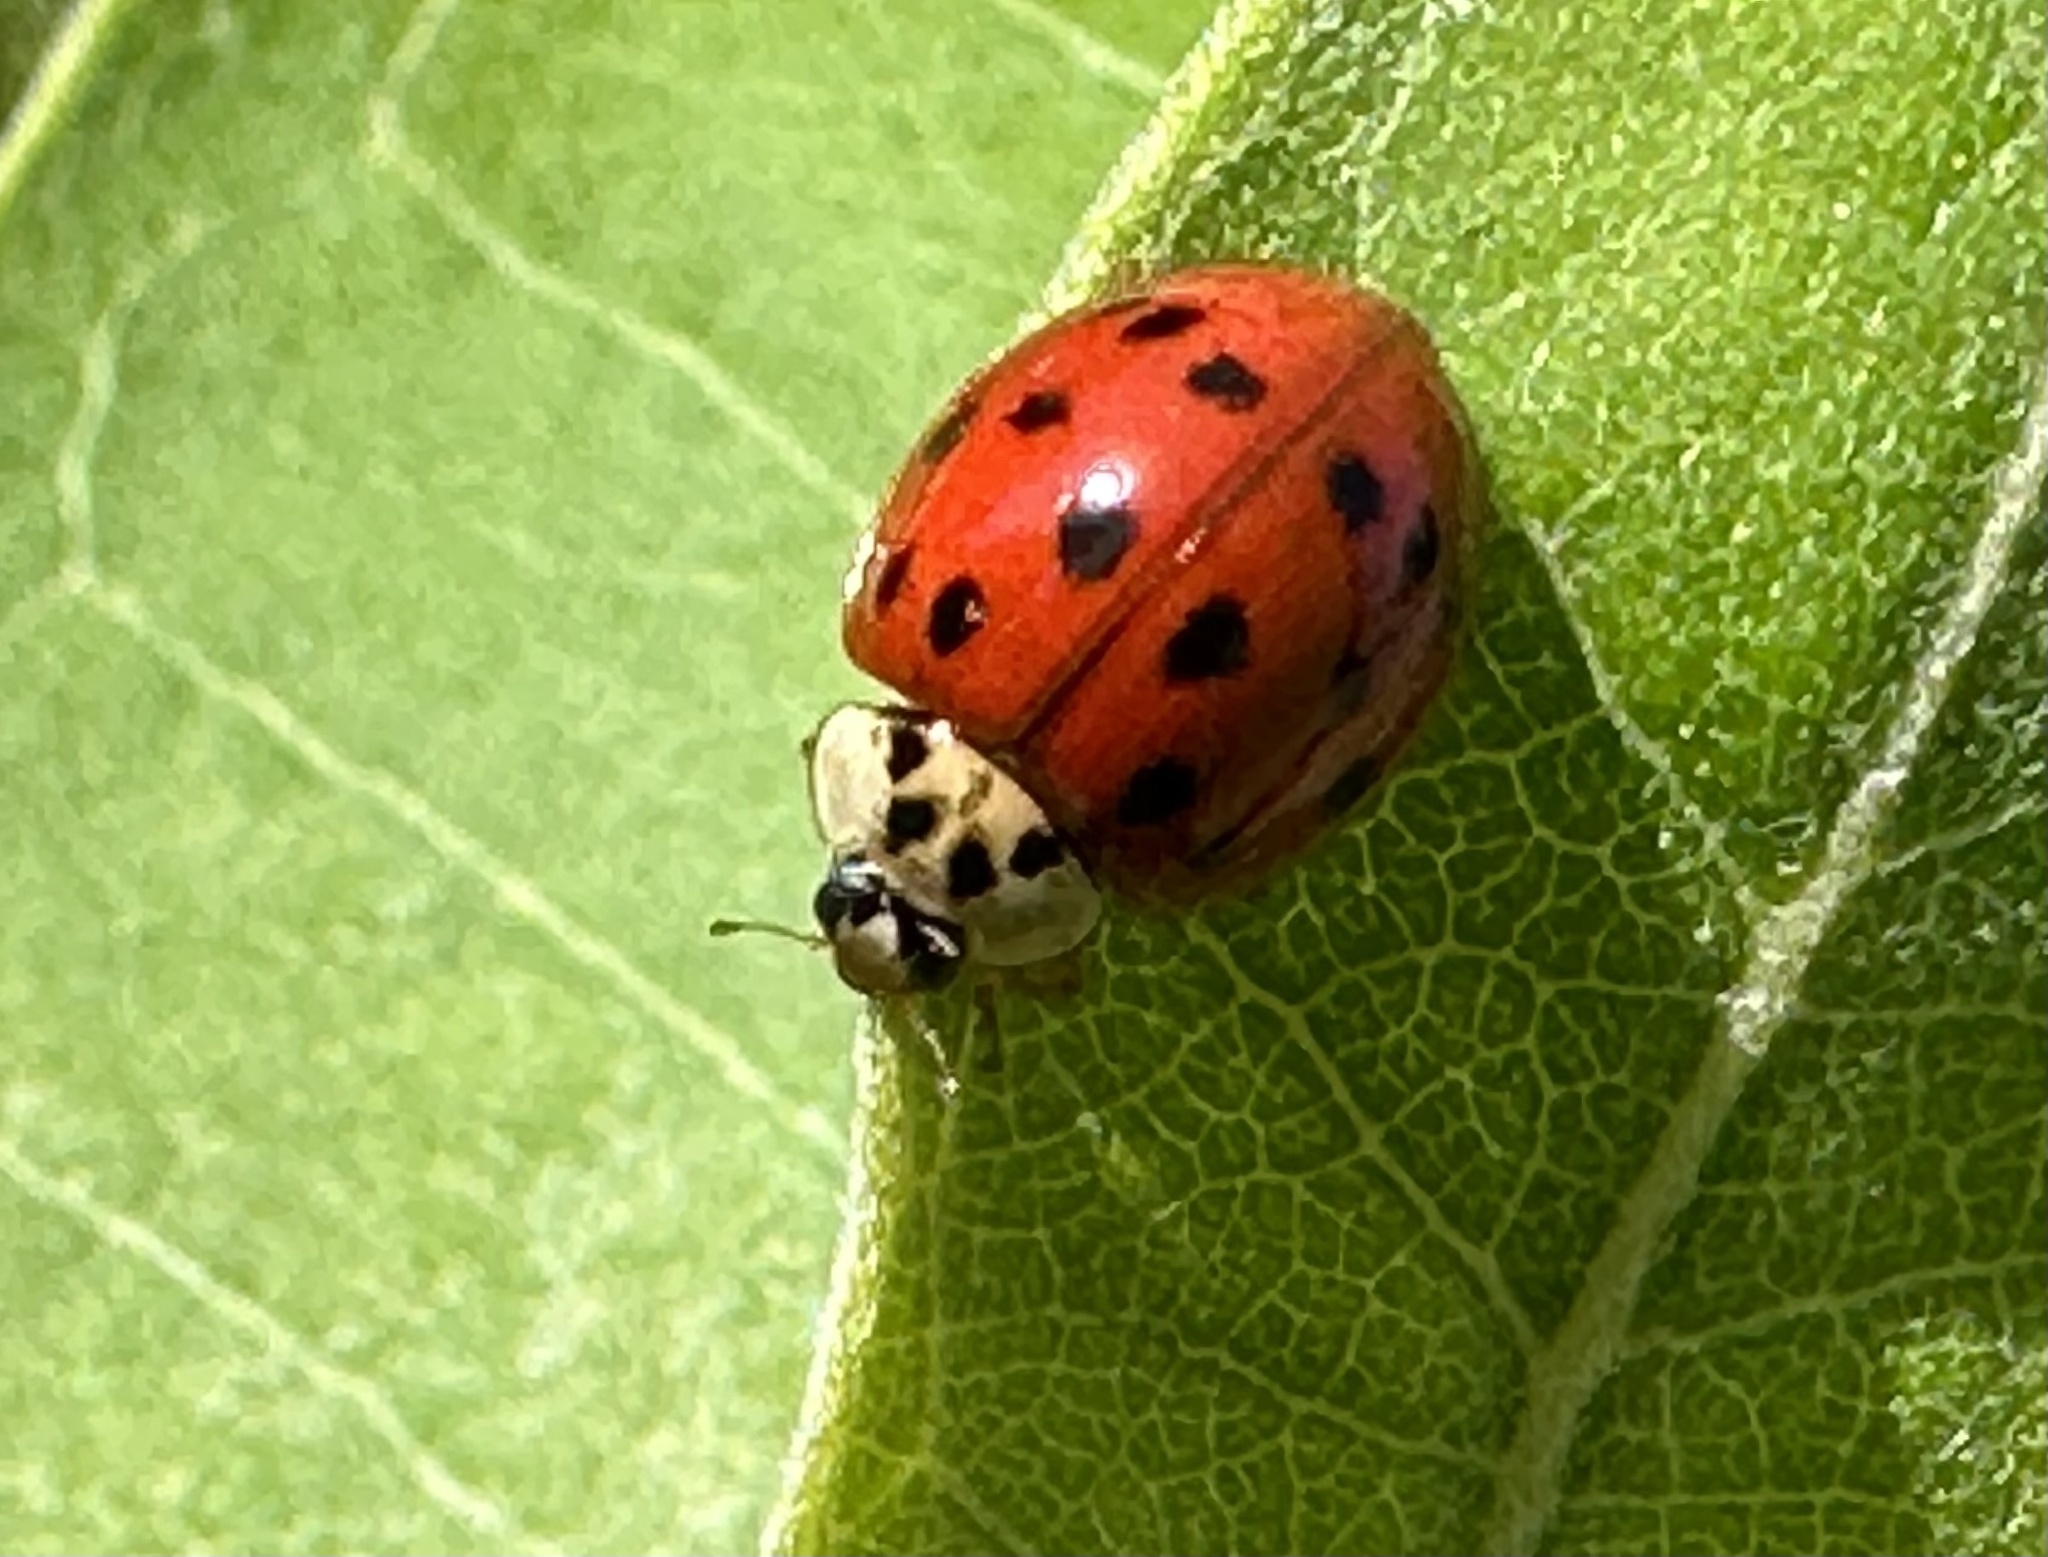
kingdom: Animalia
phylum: Arthropoda
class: Insecta
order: Coleoptera
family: Coccinellidae
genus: Harmonia
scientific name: Harmonia axyridis
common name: Harlequin ladybird
